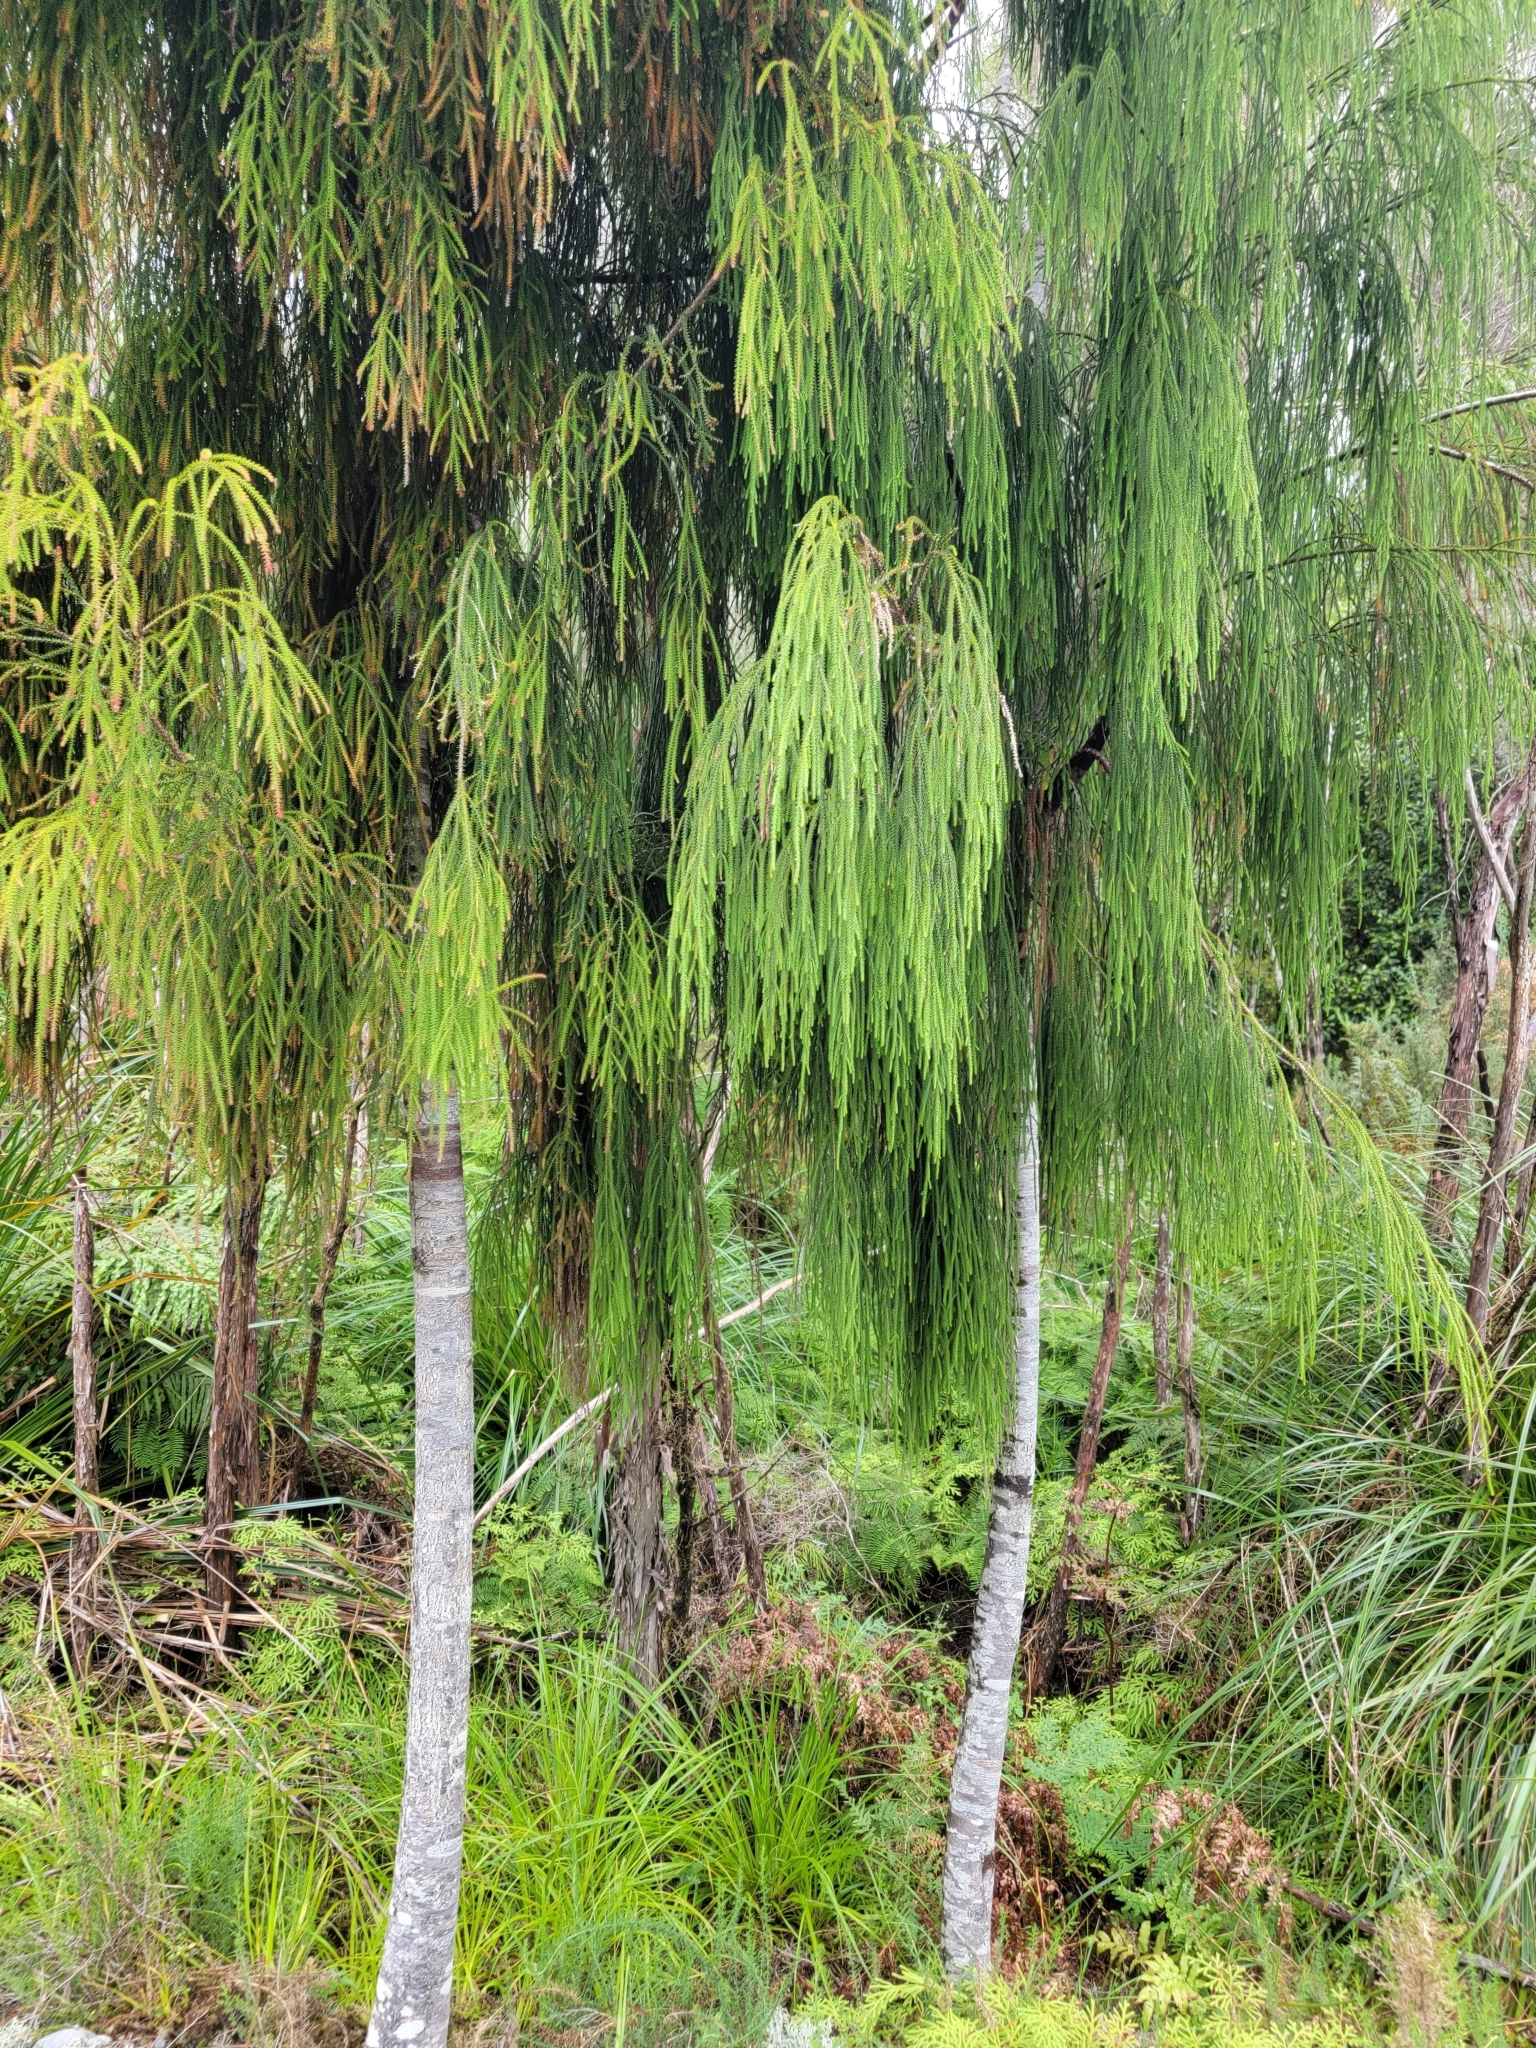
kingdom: Plantae
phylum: Tracheophyta
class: Pinopsida
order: Pinales
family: Podocarpaceae
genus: Dacrydium
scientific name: Dacrydium cupressinum
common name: Red pine
